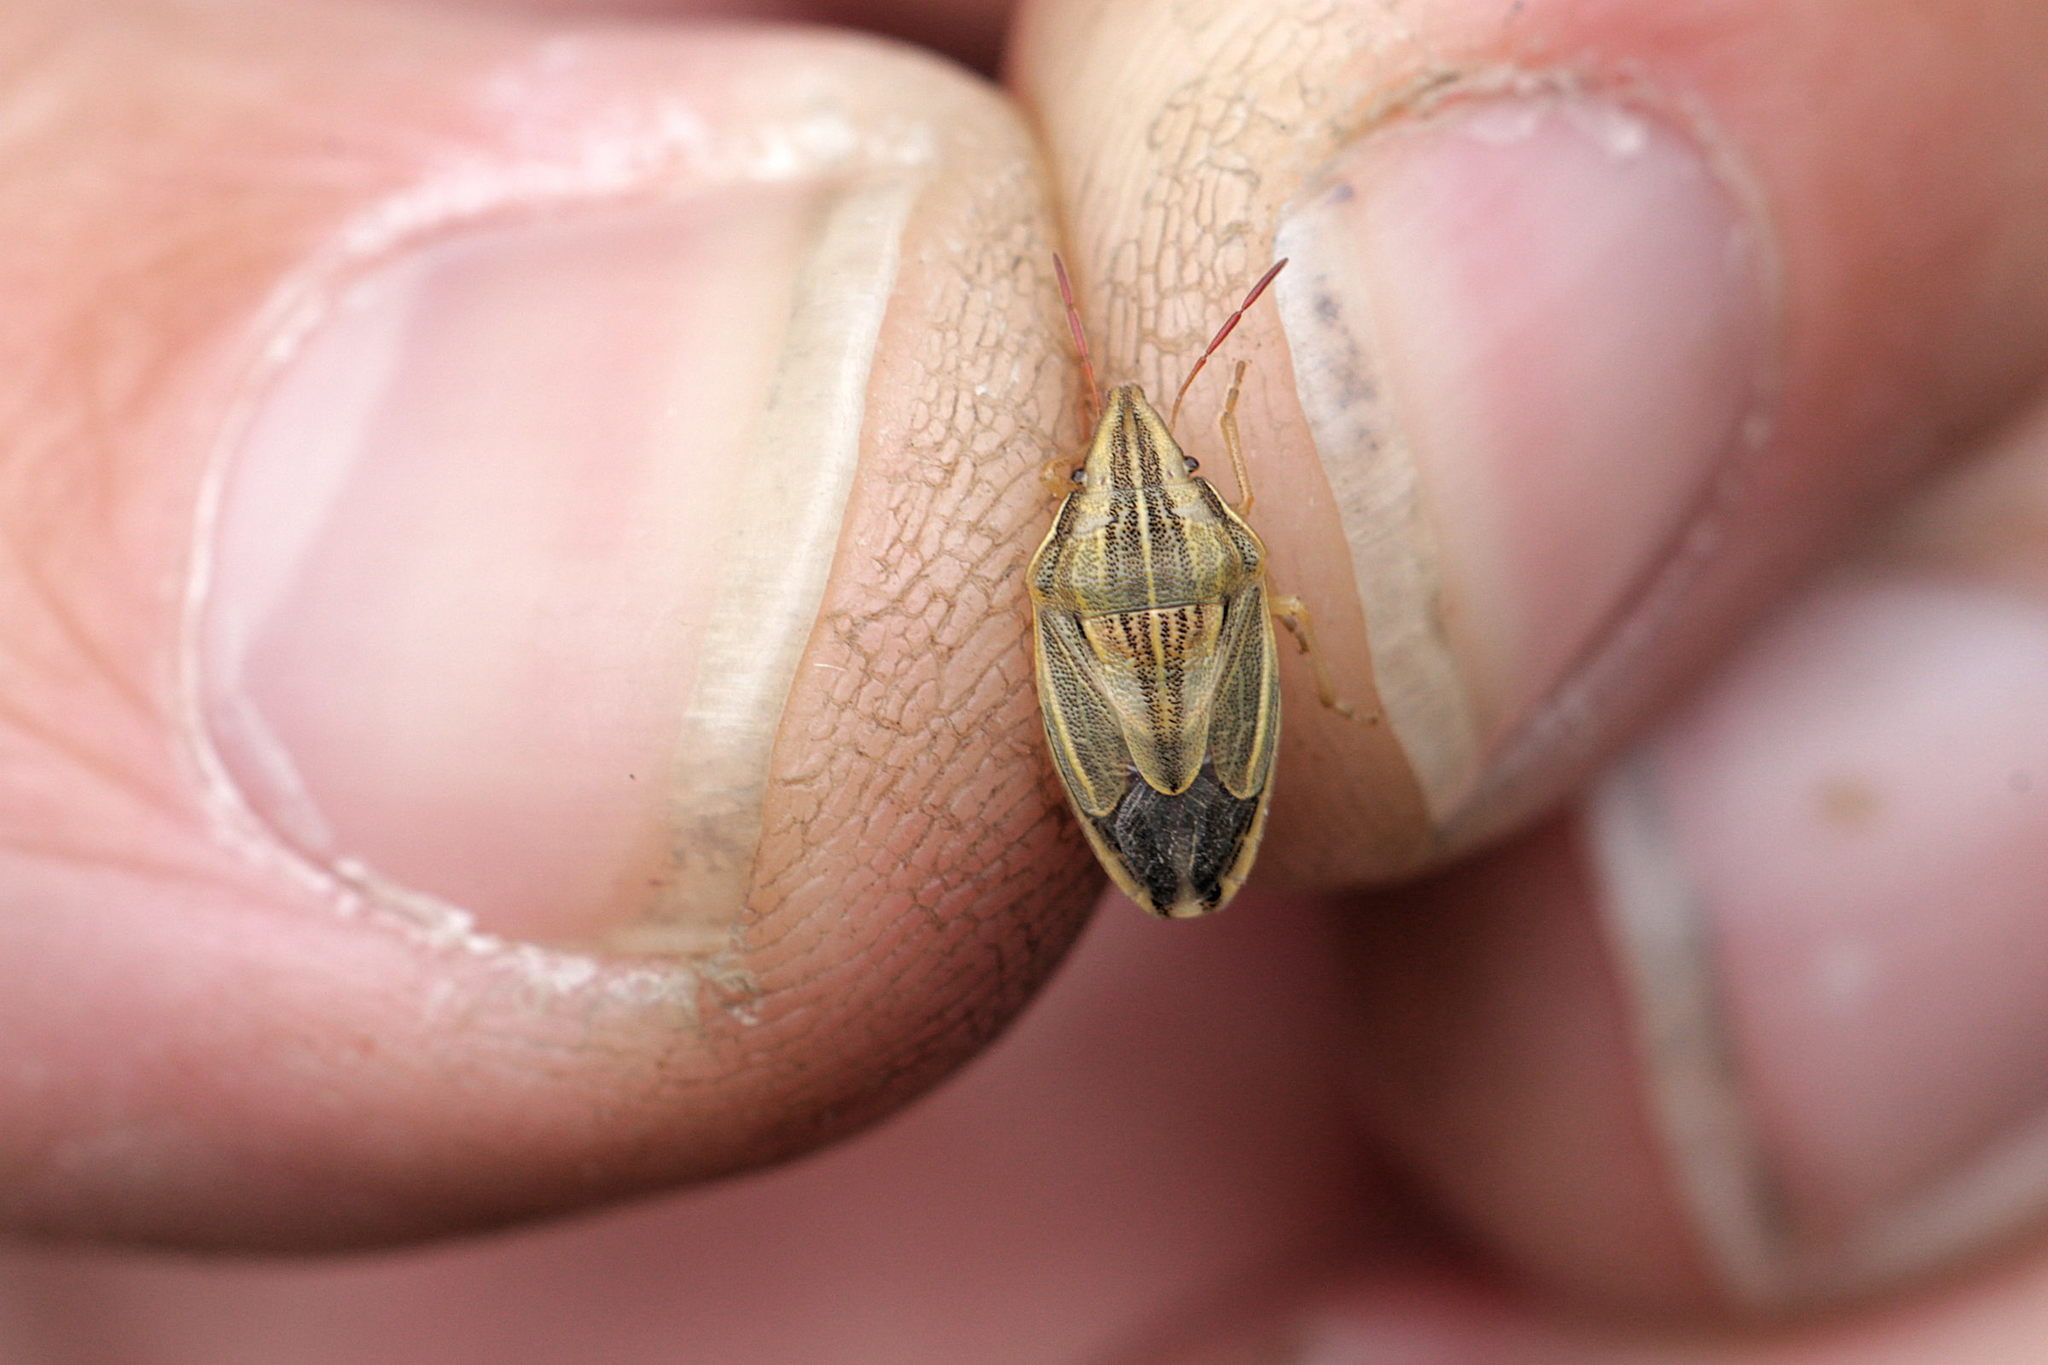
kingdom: Animalia
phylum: Arthropoda
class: Insecta
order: Hemiptera
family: Pentatomidae
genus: Aelia
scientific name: Aelia acuminata
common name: Bishop's mitre
